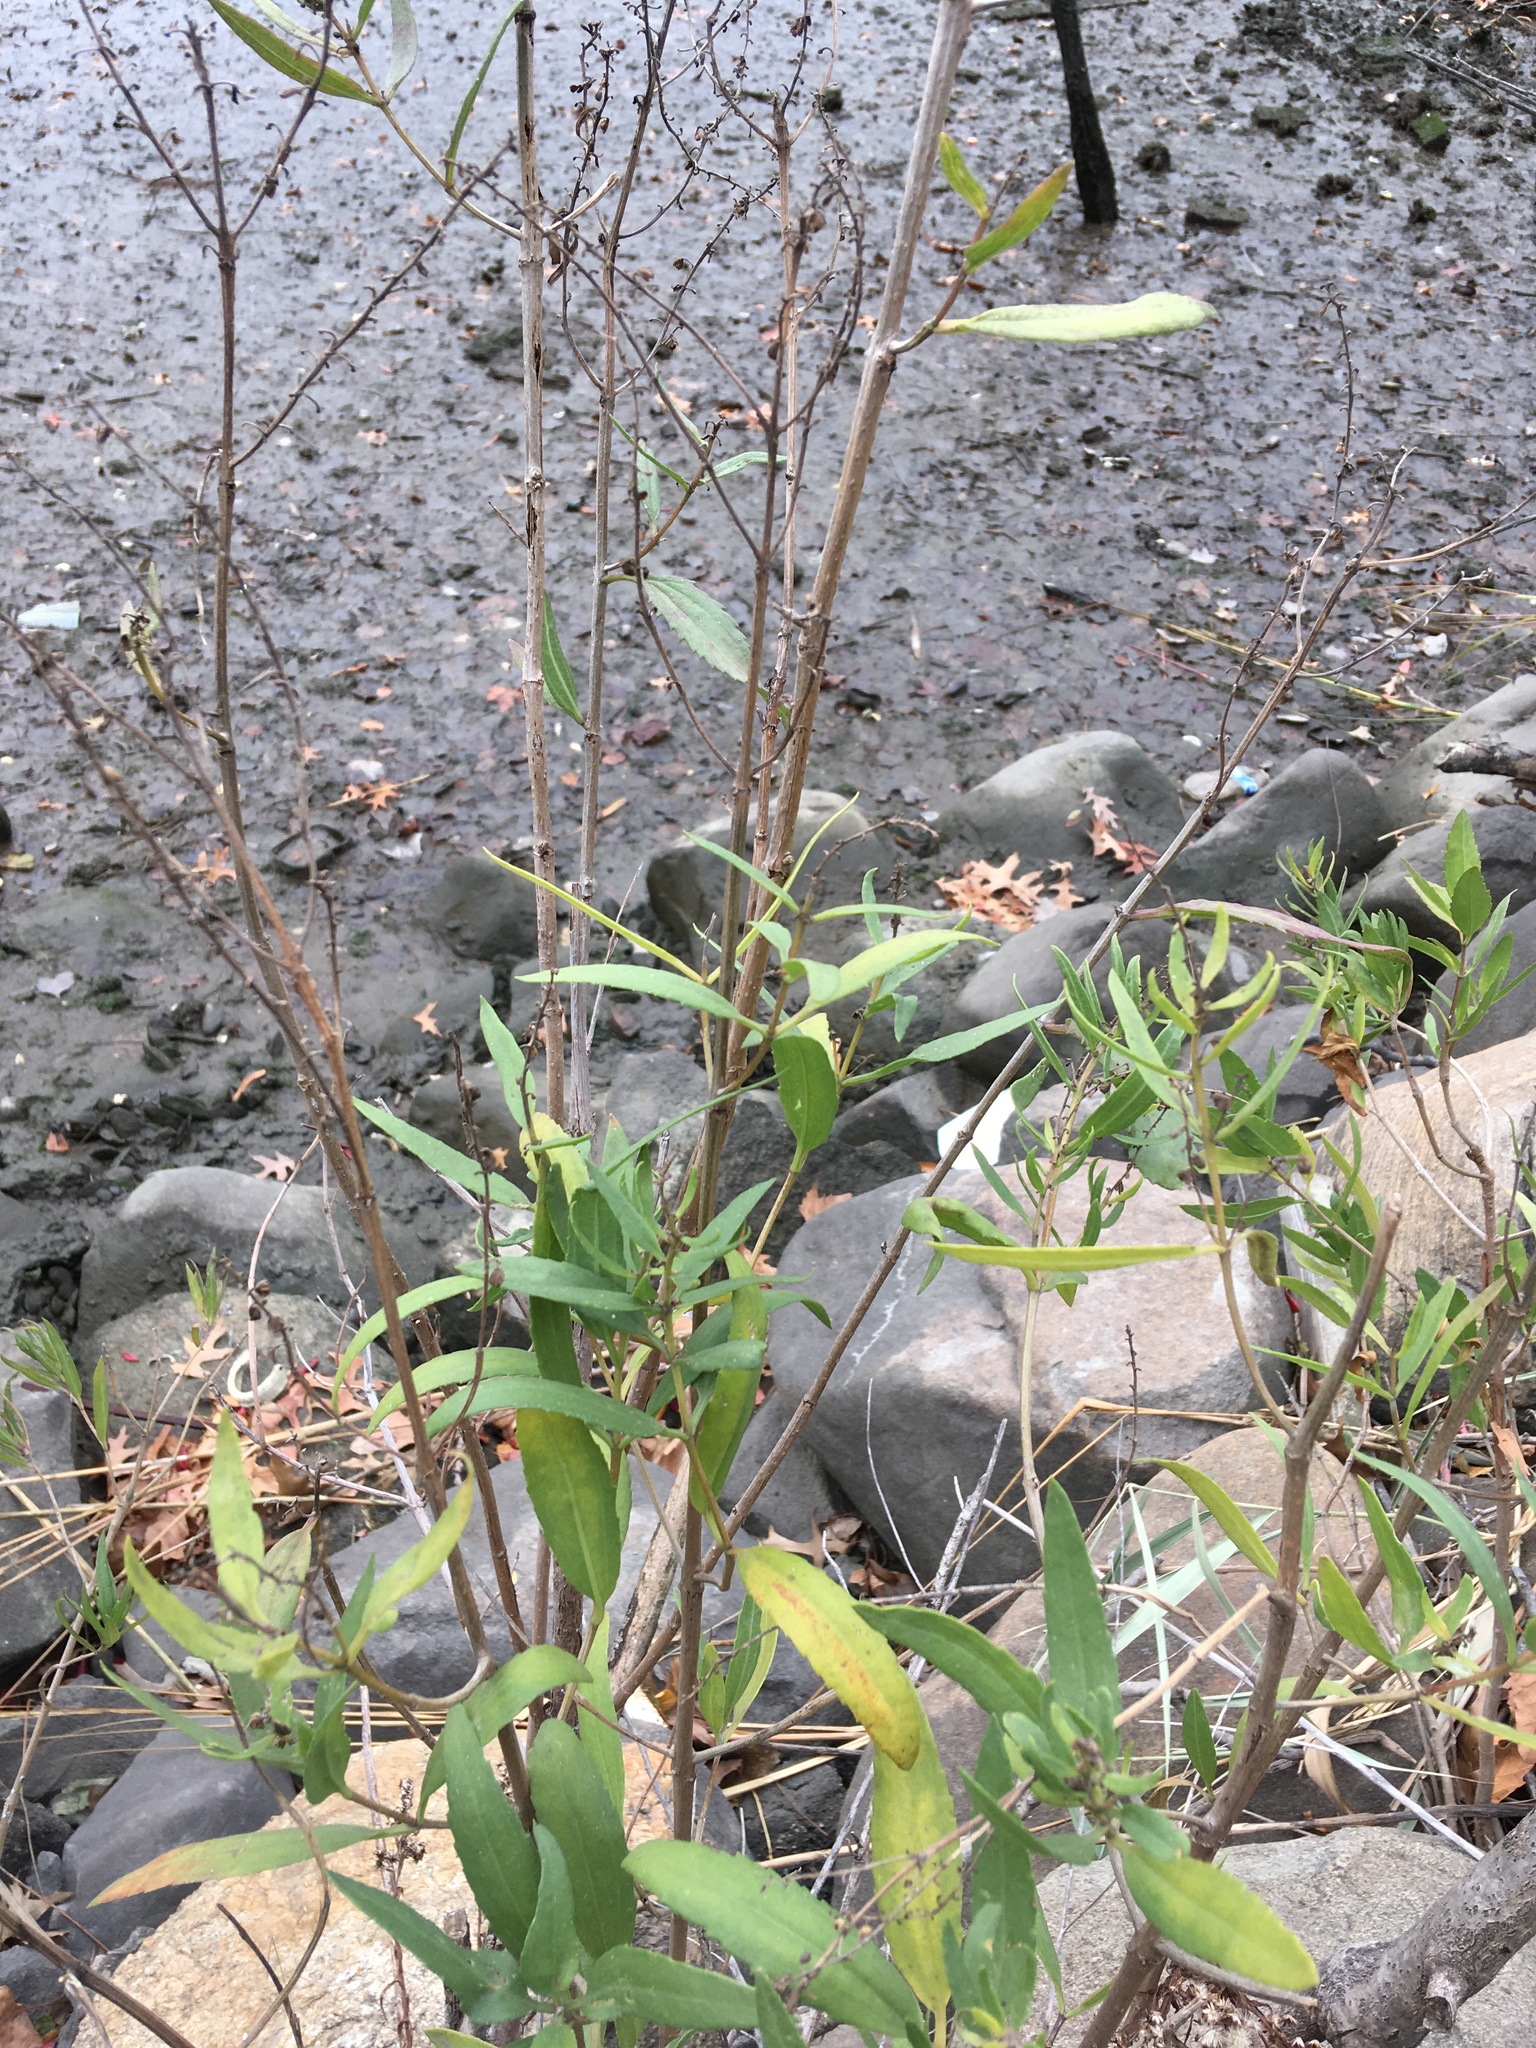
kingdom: Plantae
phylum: Tracheophyta
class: Magnoliopsida
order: Asterales
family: Asteraceae
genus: Iva
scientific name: Iva frutescens
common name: Big-leaved marsh-elder
